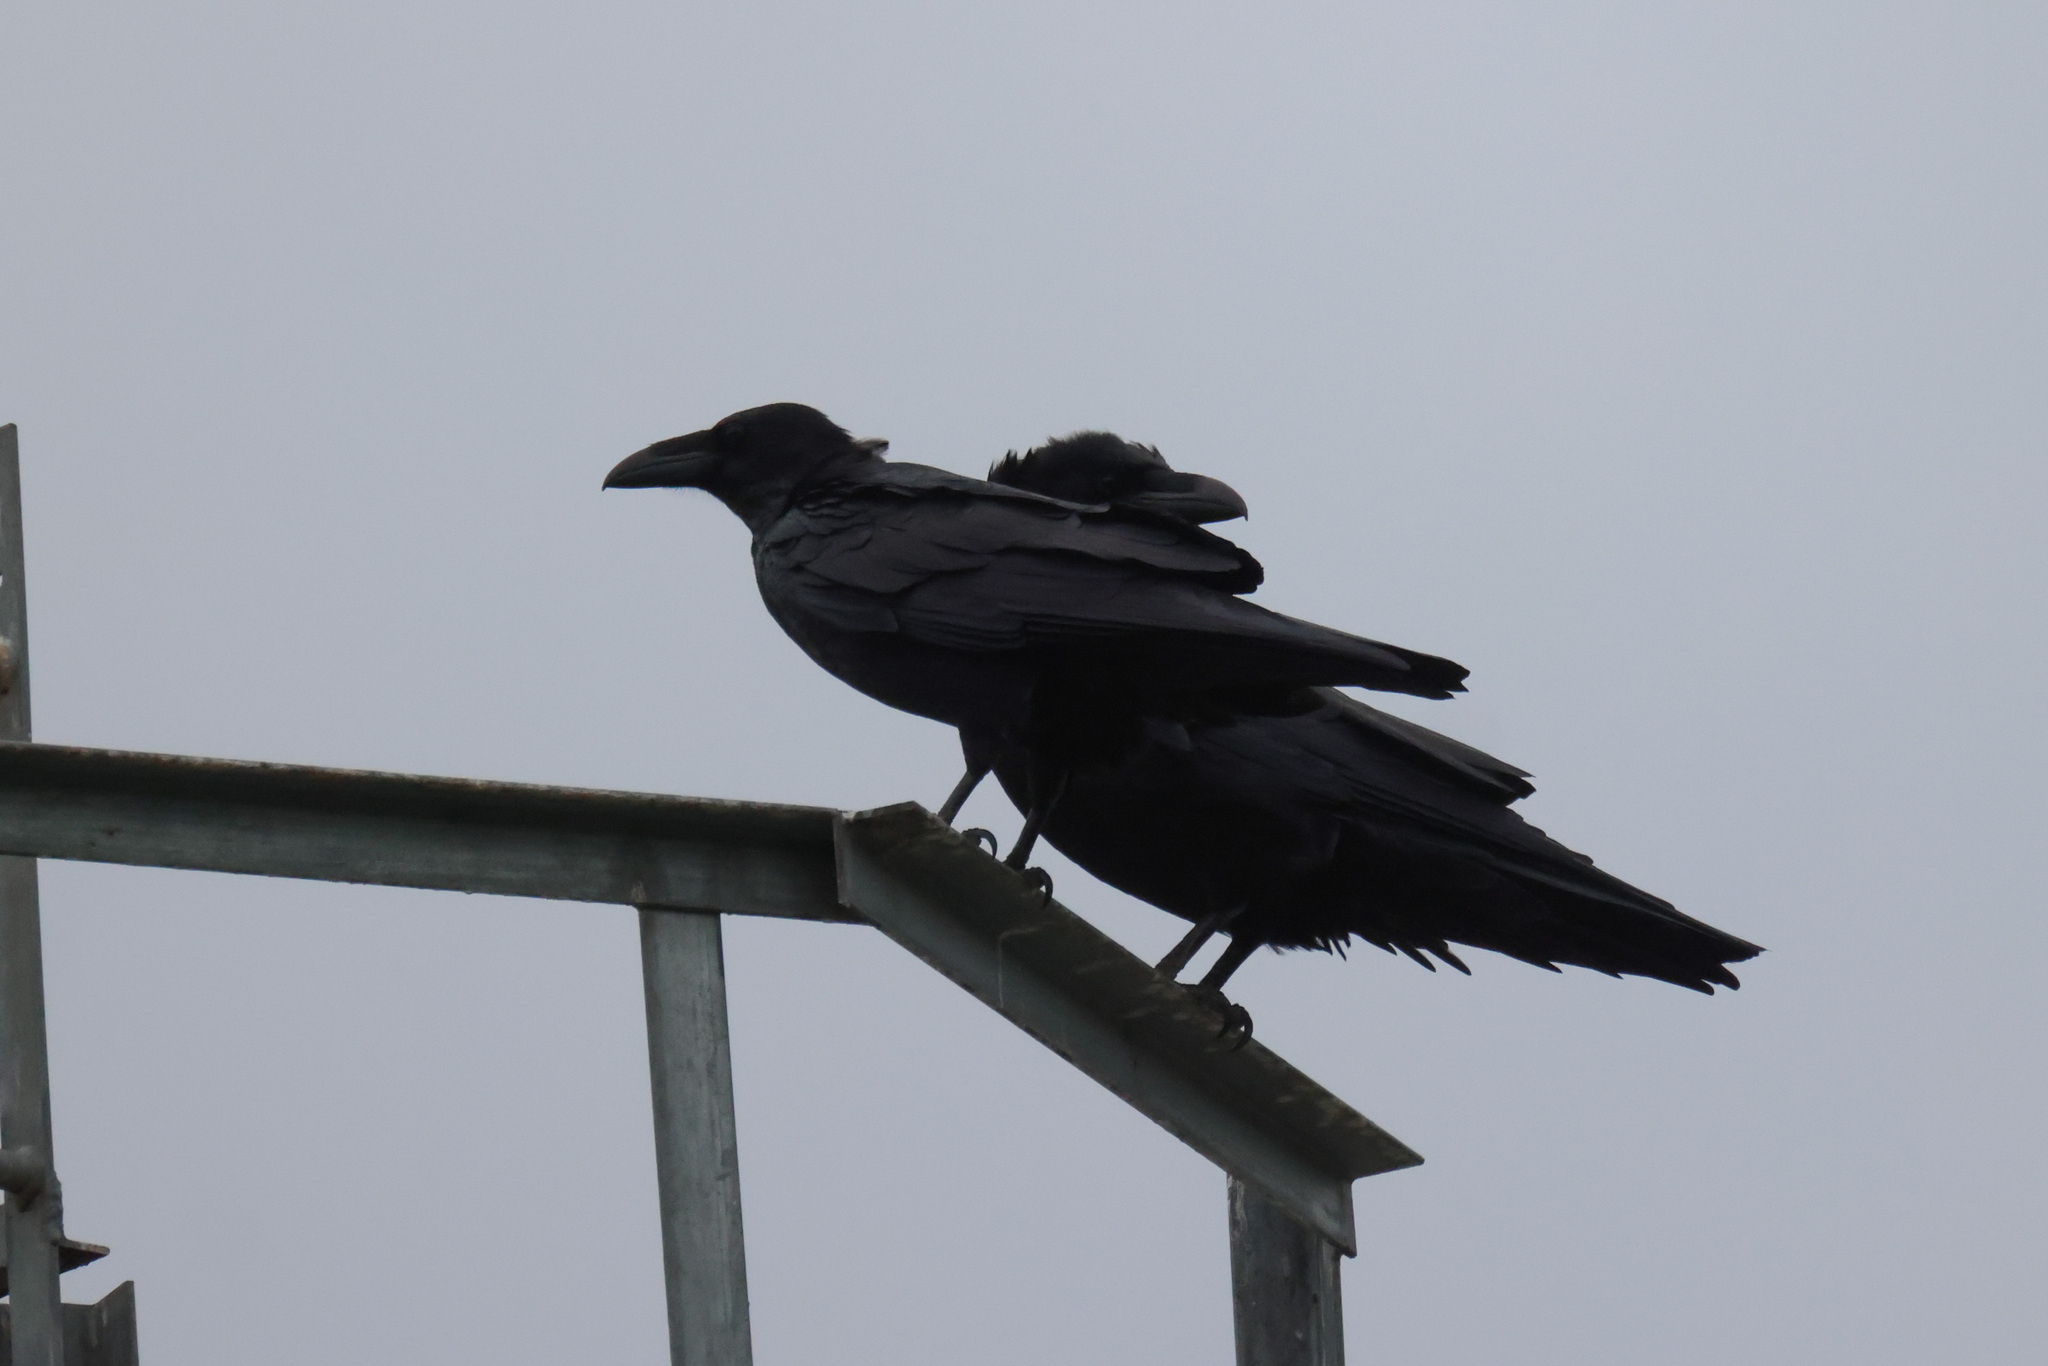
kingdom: Animalia
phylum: Chordata
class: Aves
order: Passeriformes
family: Corvidae
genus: Corvus
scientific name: Corvus corax
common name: Common raven
